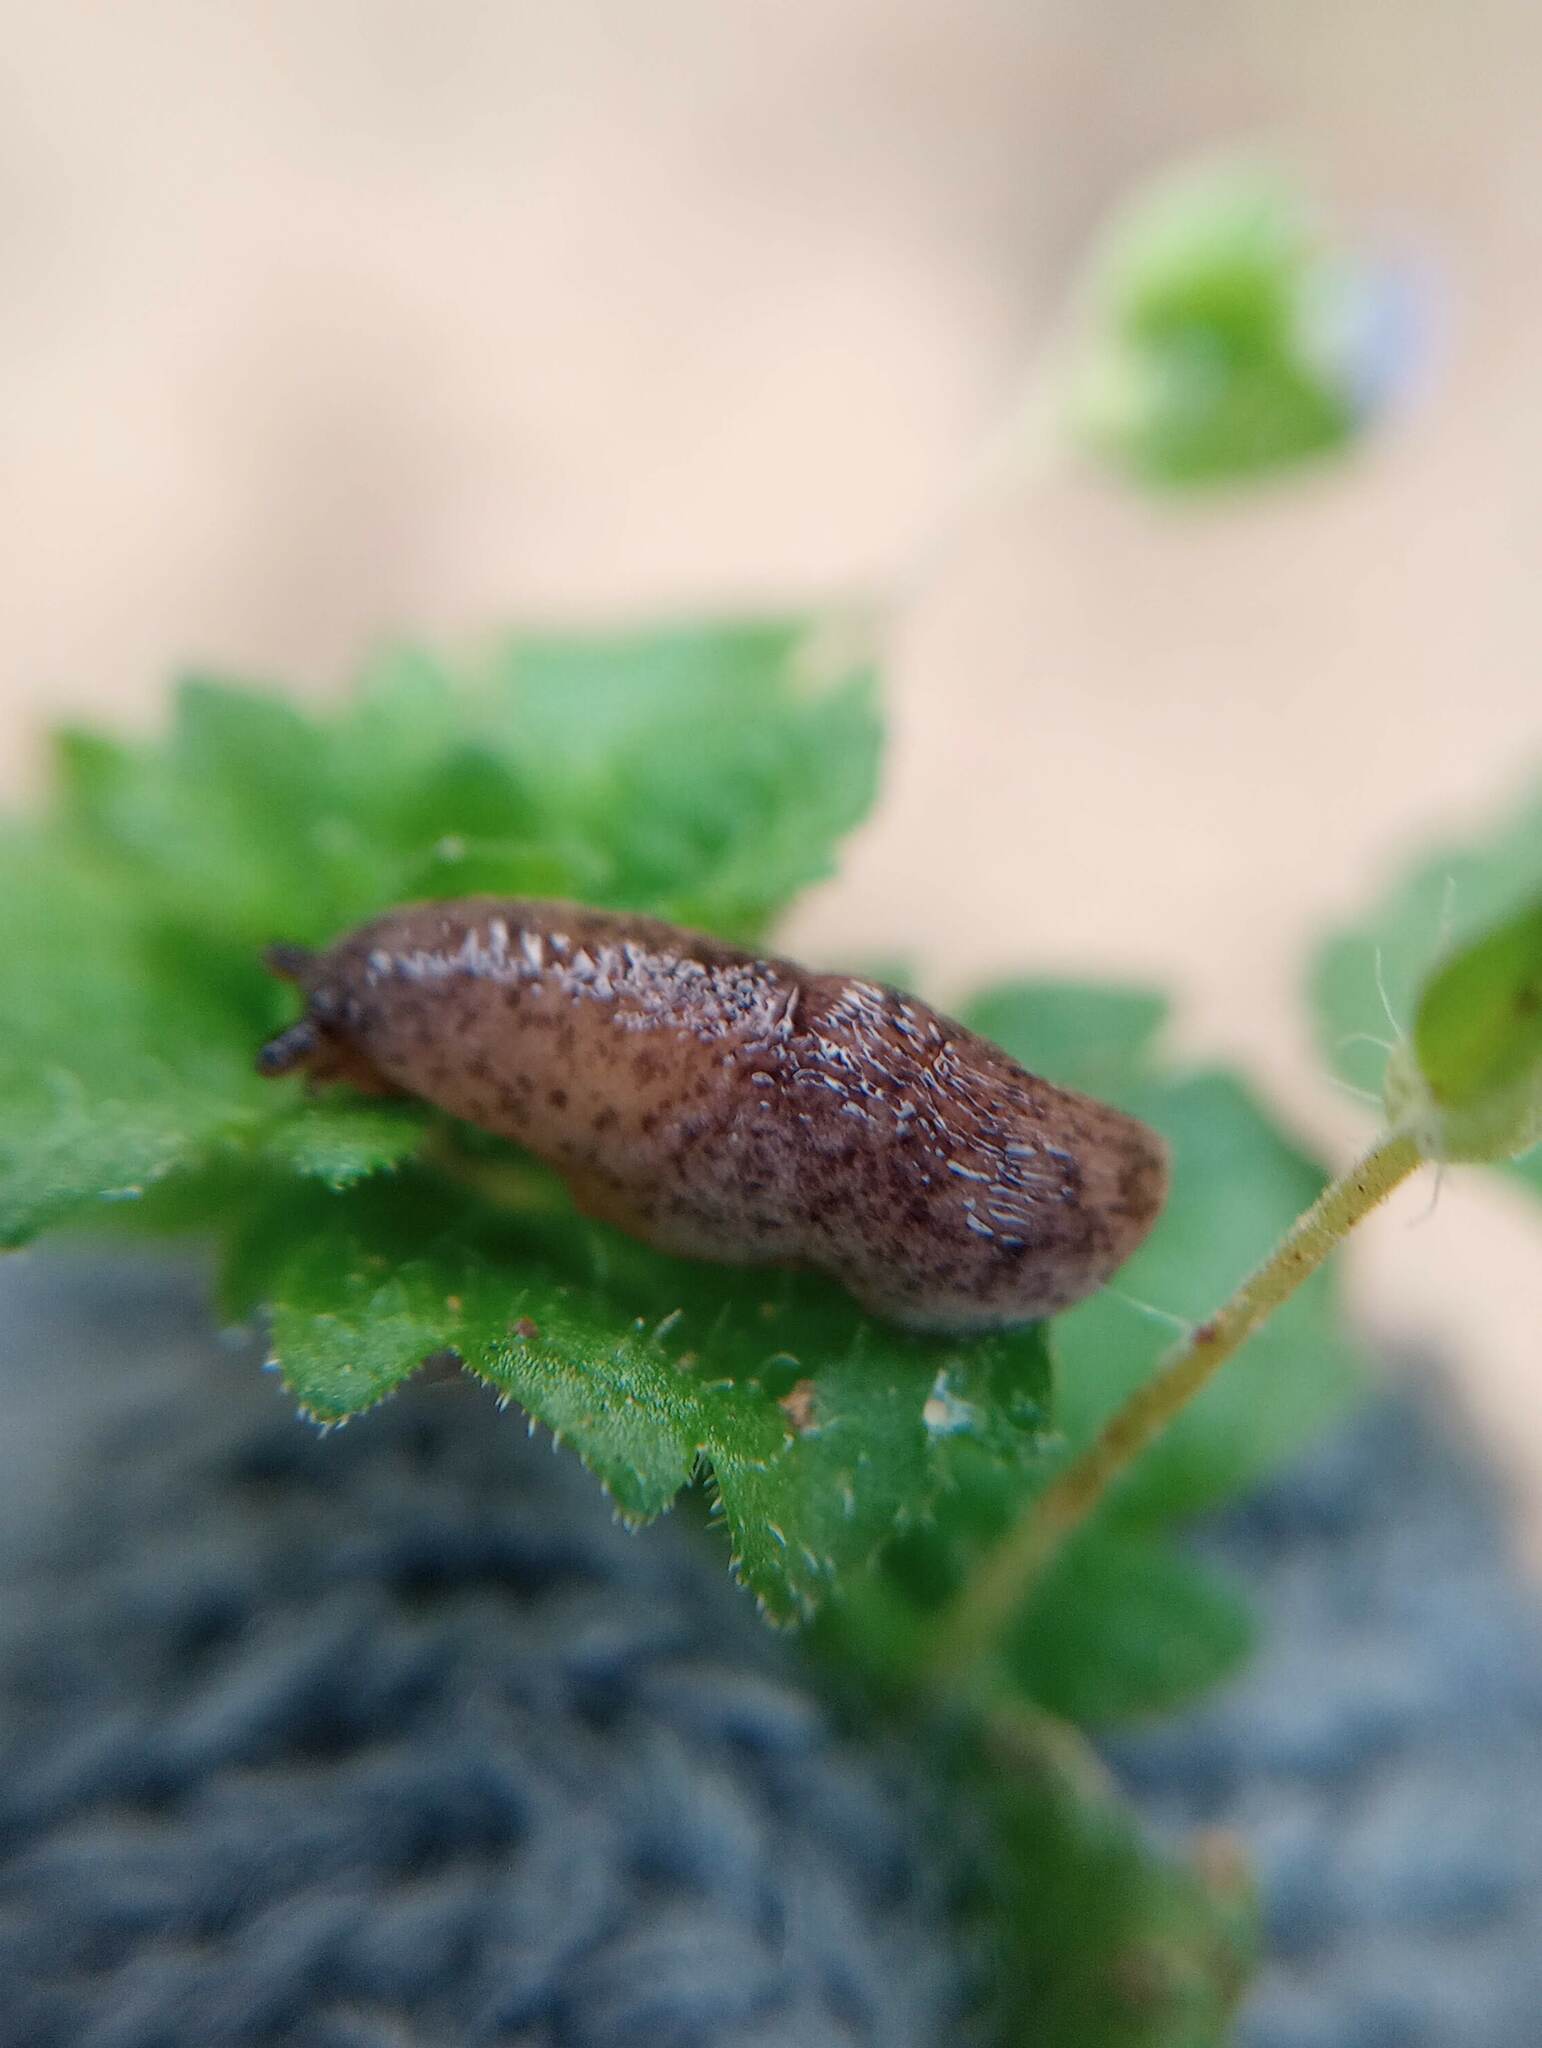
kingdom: Animalia
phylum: Mollusca
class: Gastropoda
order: Stylommatophora
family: Agriolimacidae
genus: Deroceras
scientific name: Deroceras reticulatum
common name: Gray field slug
